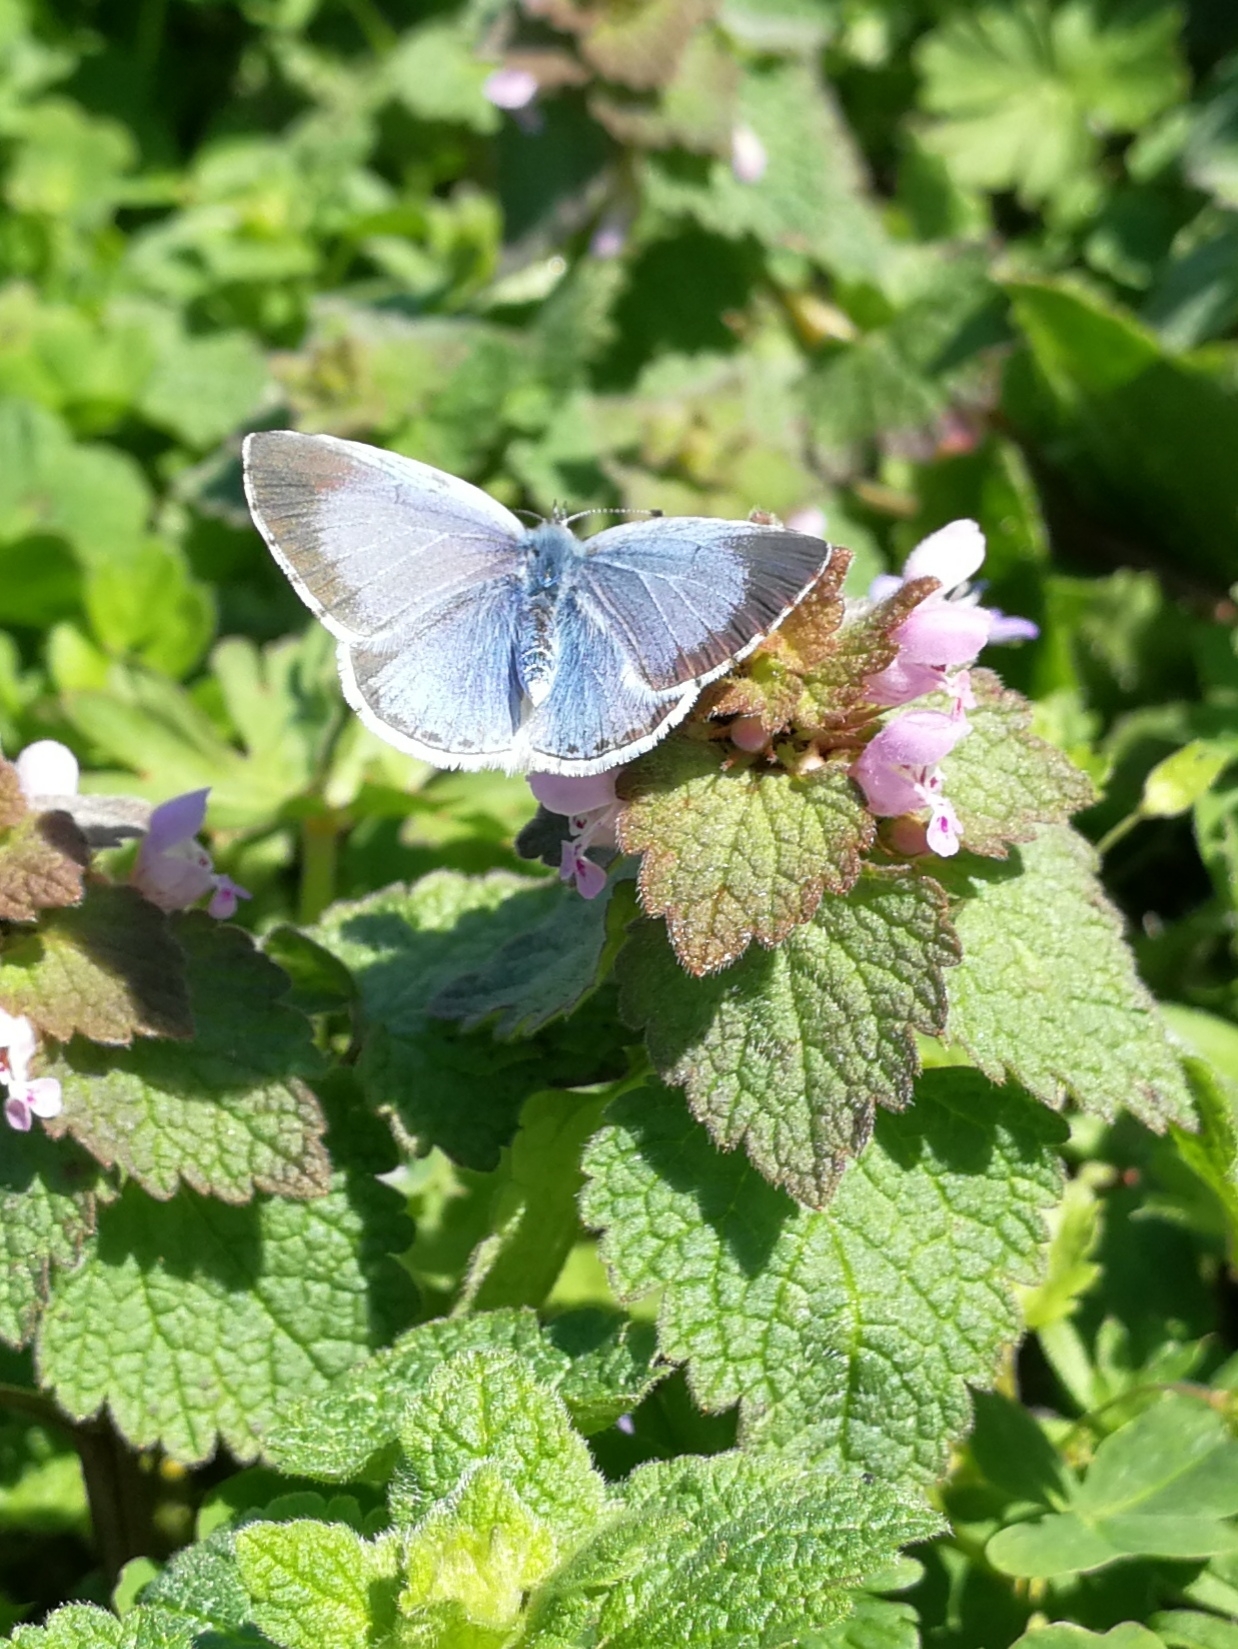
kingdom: Animalia
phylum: Arthropoda
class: Insecta
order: Lepidoptera
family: Lycaenidae
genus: Celastrina
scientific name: Celastrina argiolus
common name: Holly blue
